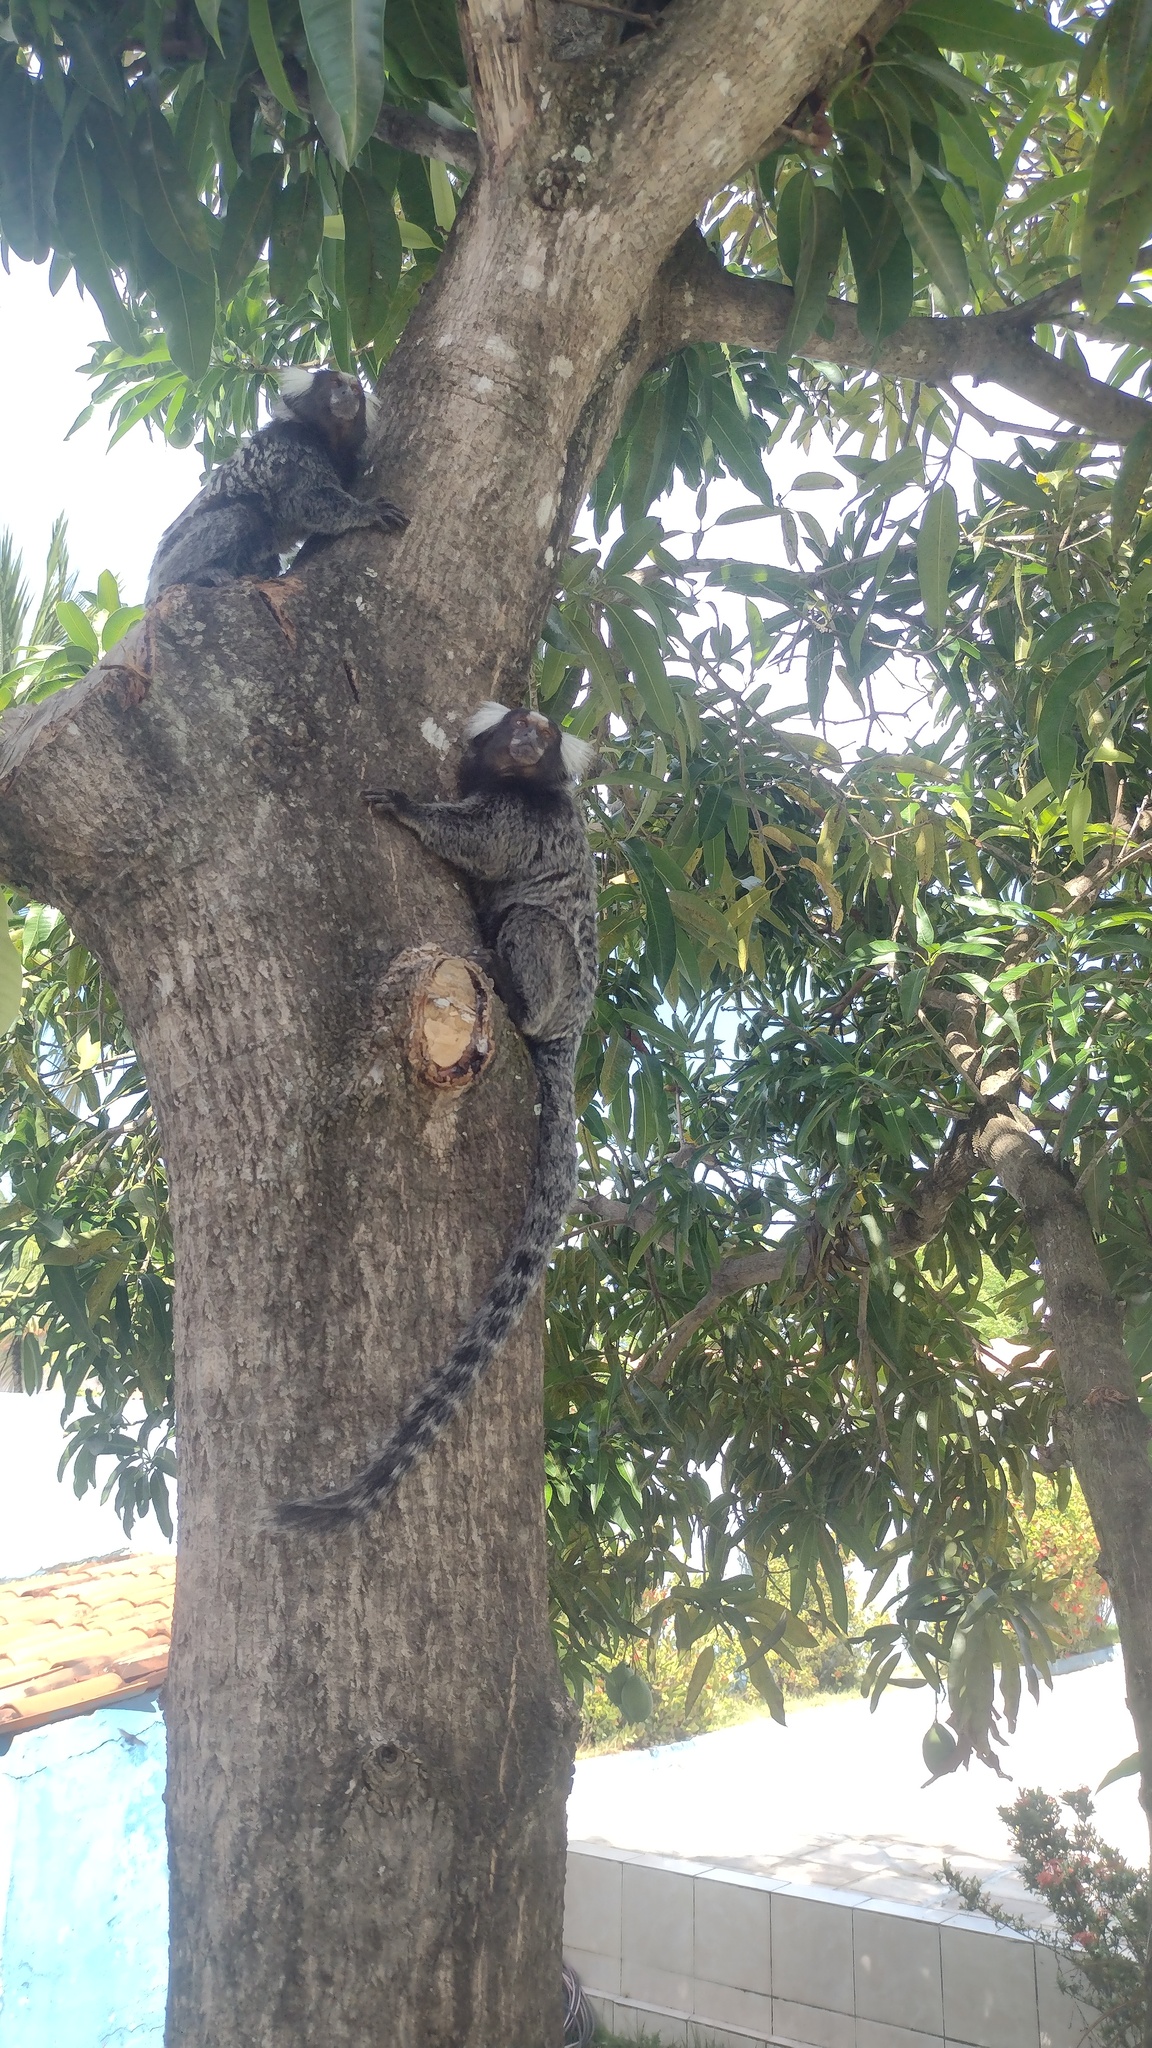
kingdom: Animalia
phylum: Chordata
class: Mammalia
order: Primates
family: Callitrichidae
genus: Callithrix
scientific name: Callithrix jacchus
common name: Common marmoset
